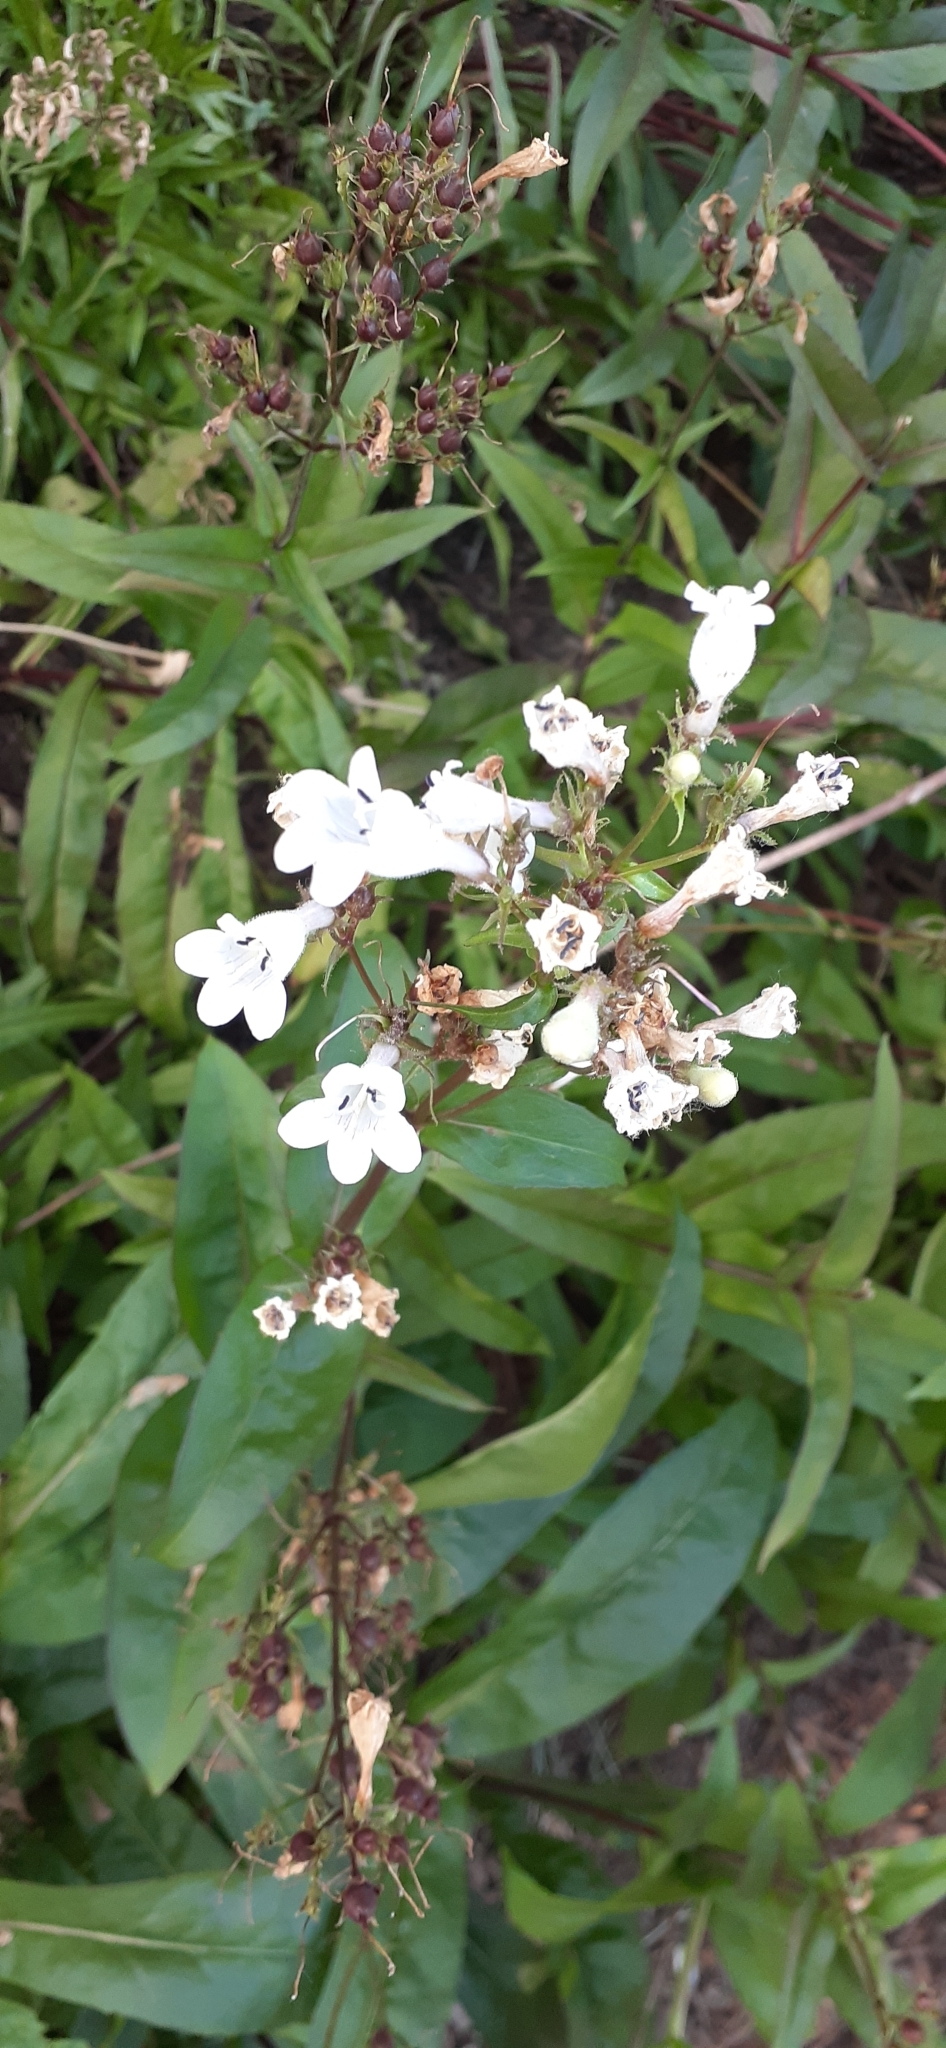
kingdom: Plantae
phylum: Tracheophyta
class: Magnoliopsida
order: Lamiales
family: Plantaginaceae
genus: Penstemon
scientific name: Penstemon digitalis
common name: Foxglove beardtongue
